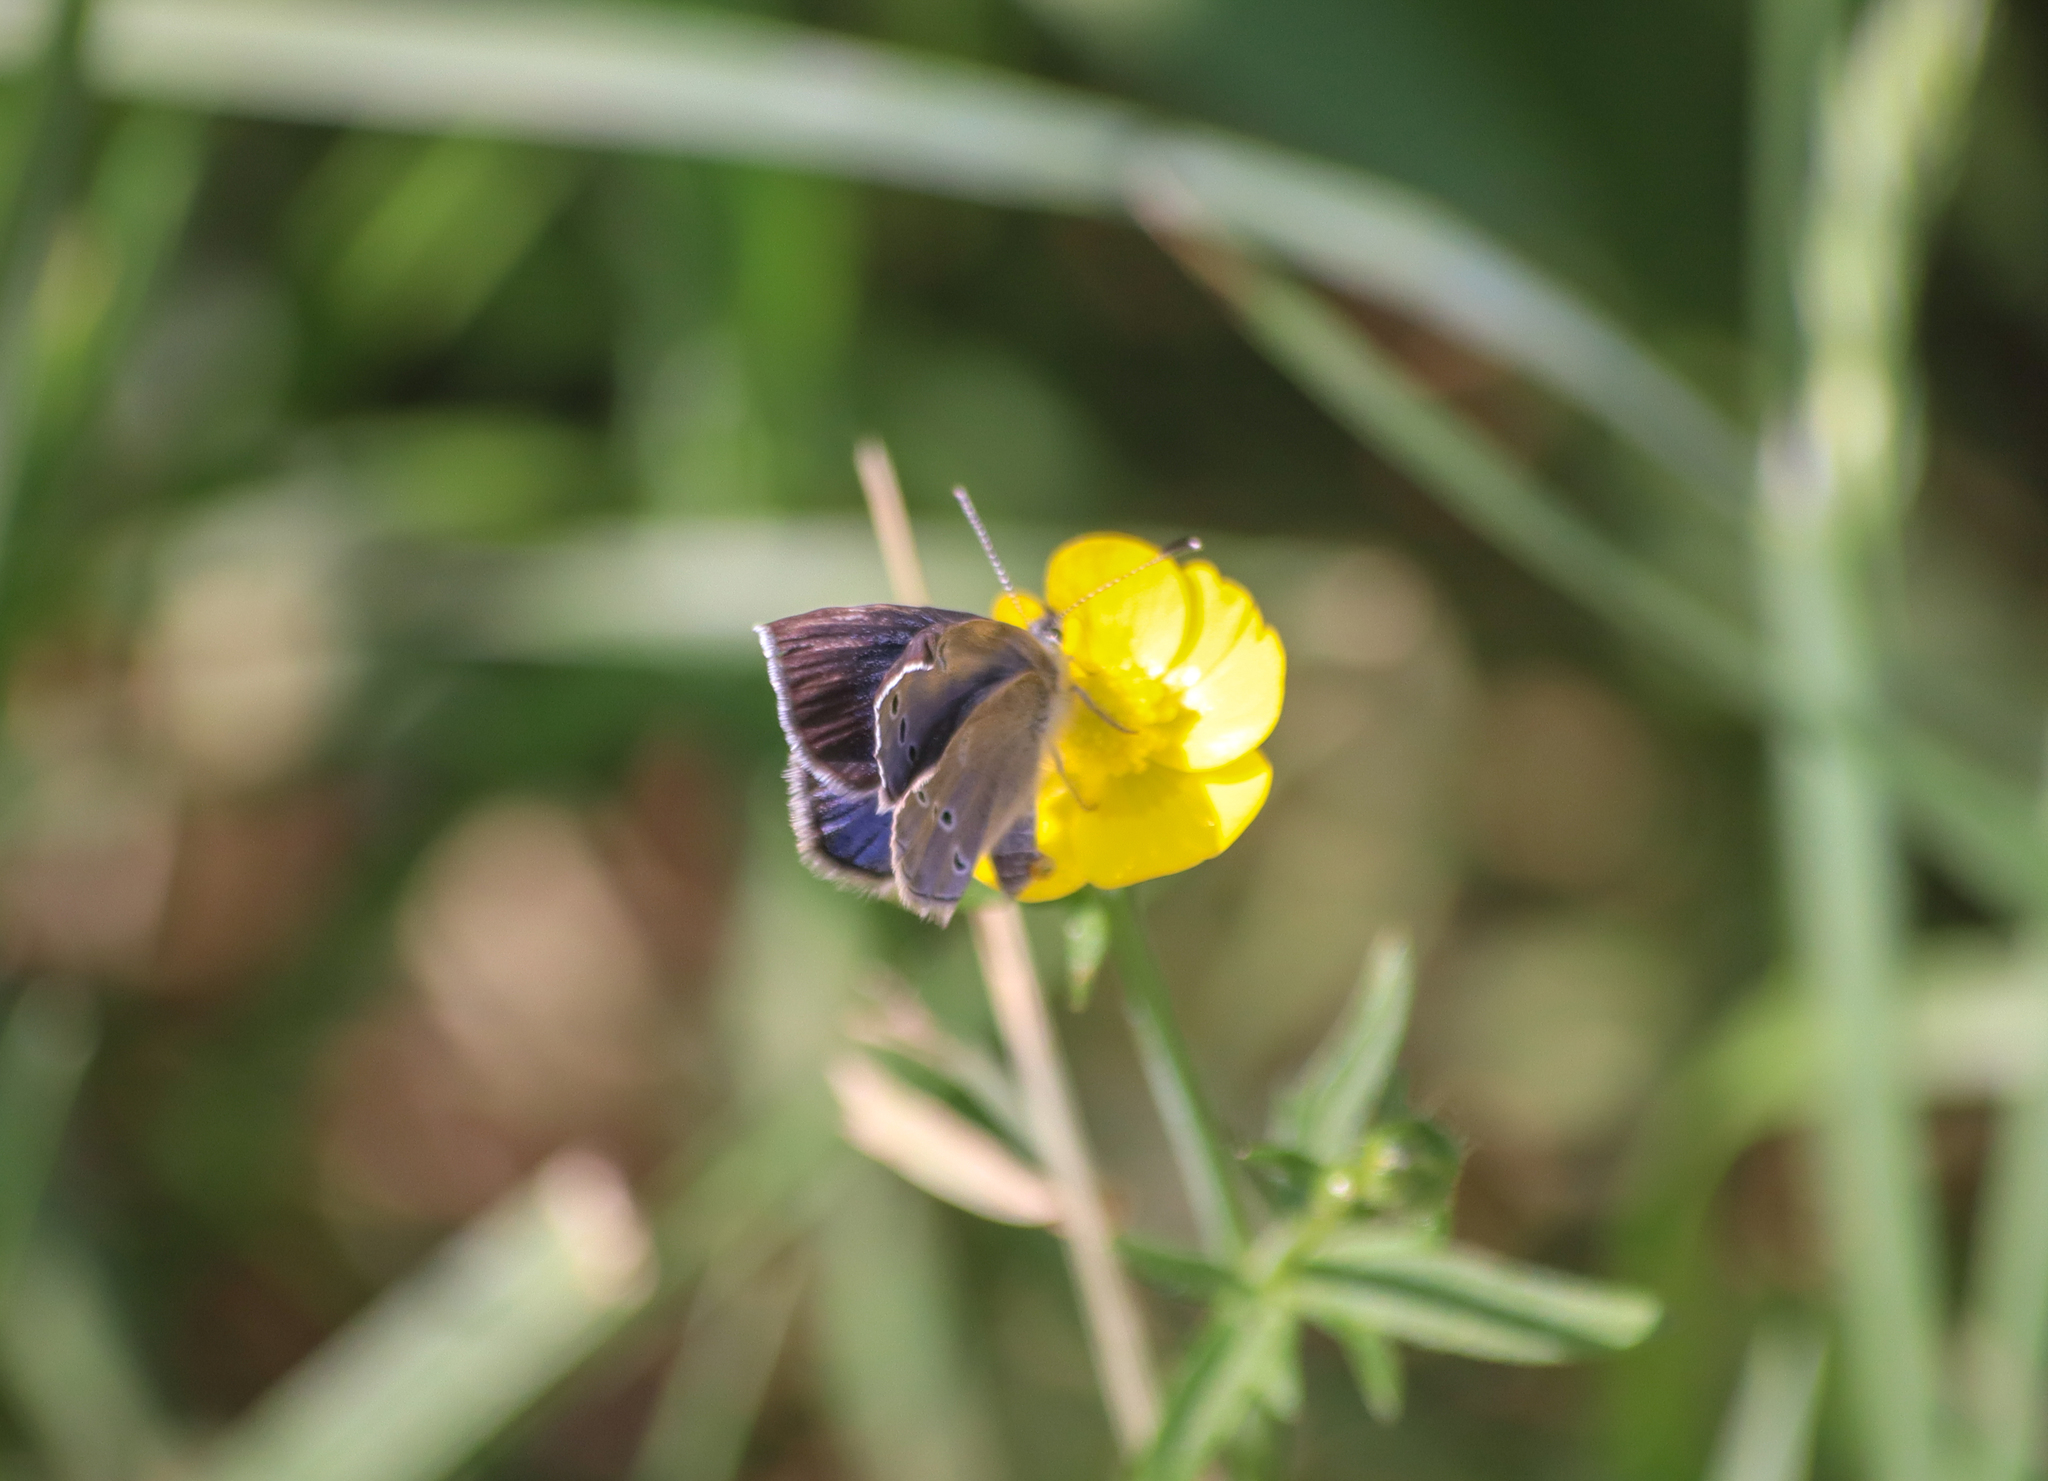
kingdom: Animalia
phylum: Arthropoda
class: Insecta
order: Lepidoptera
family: Lycaenidae
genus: Glaucopsyche
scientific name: Glaucopsyche lygdamus
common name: Silvery blue
